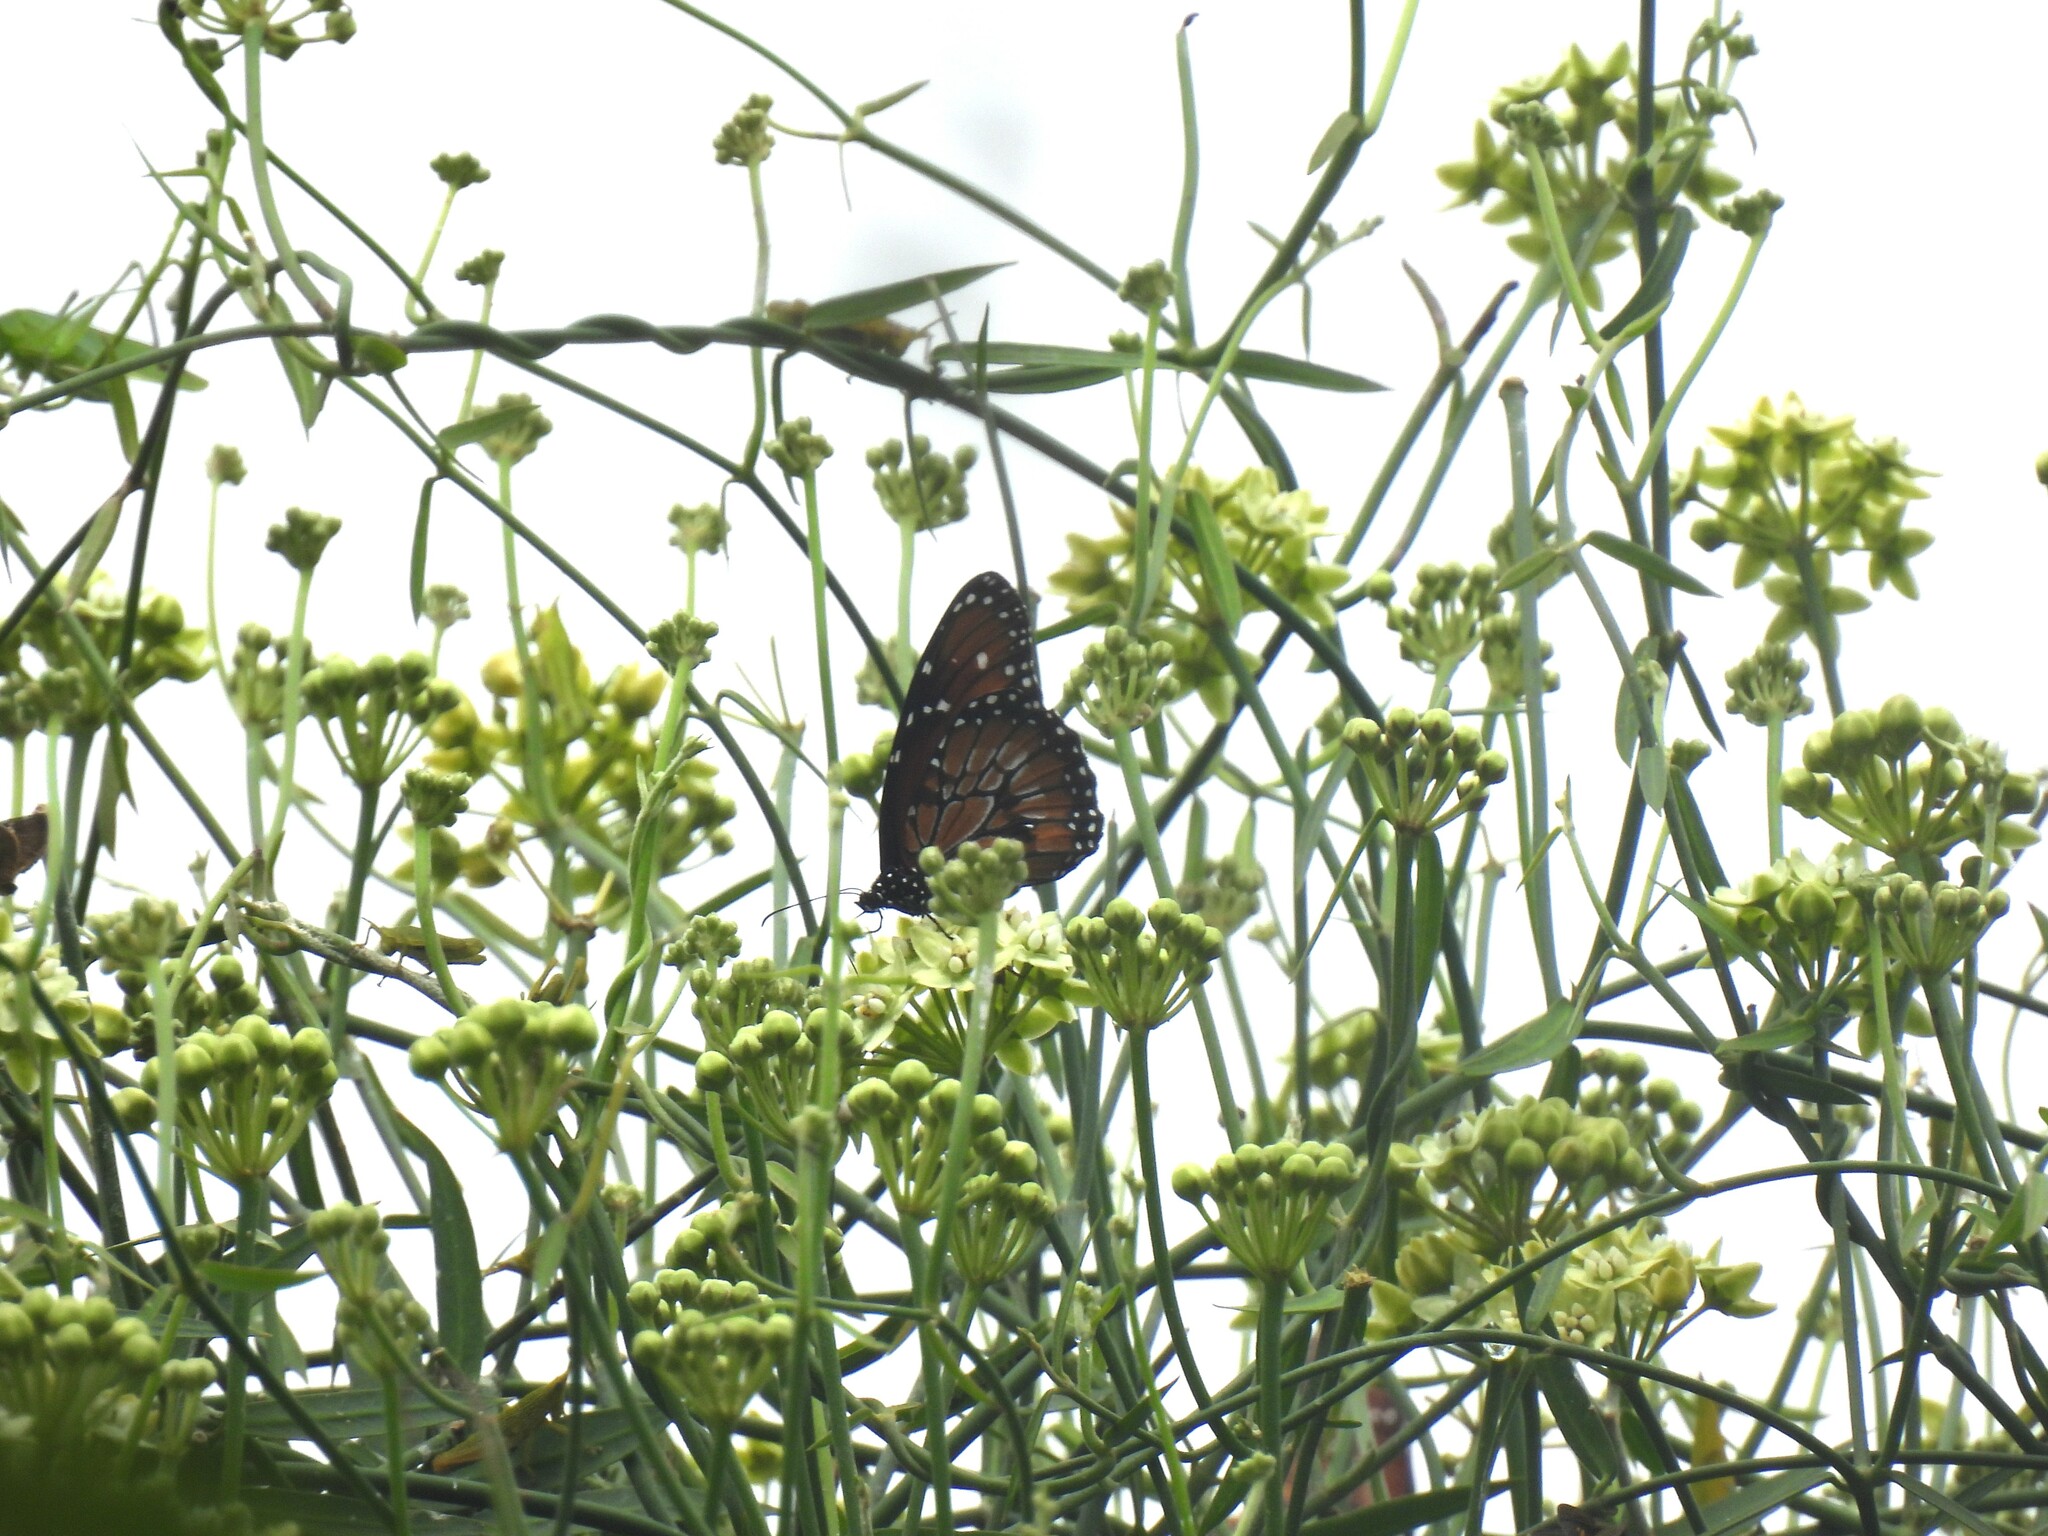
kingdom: Animalia
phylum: Arthropoda
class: Insecta
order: Lepidoptera
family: Nymphalidae
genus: Danaus
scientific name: Danaus eresimus
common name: Soldier
